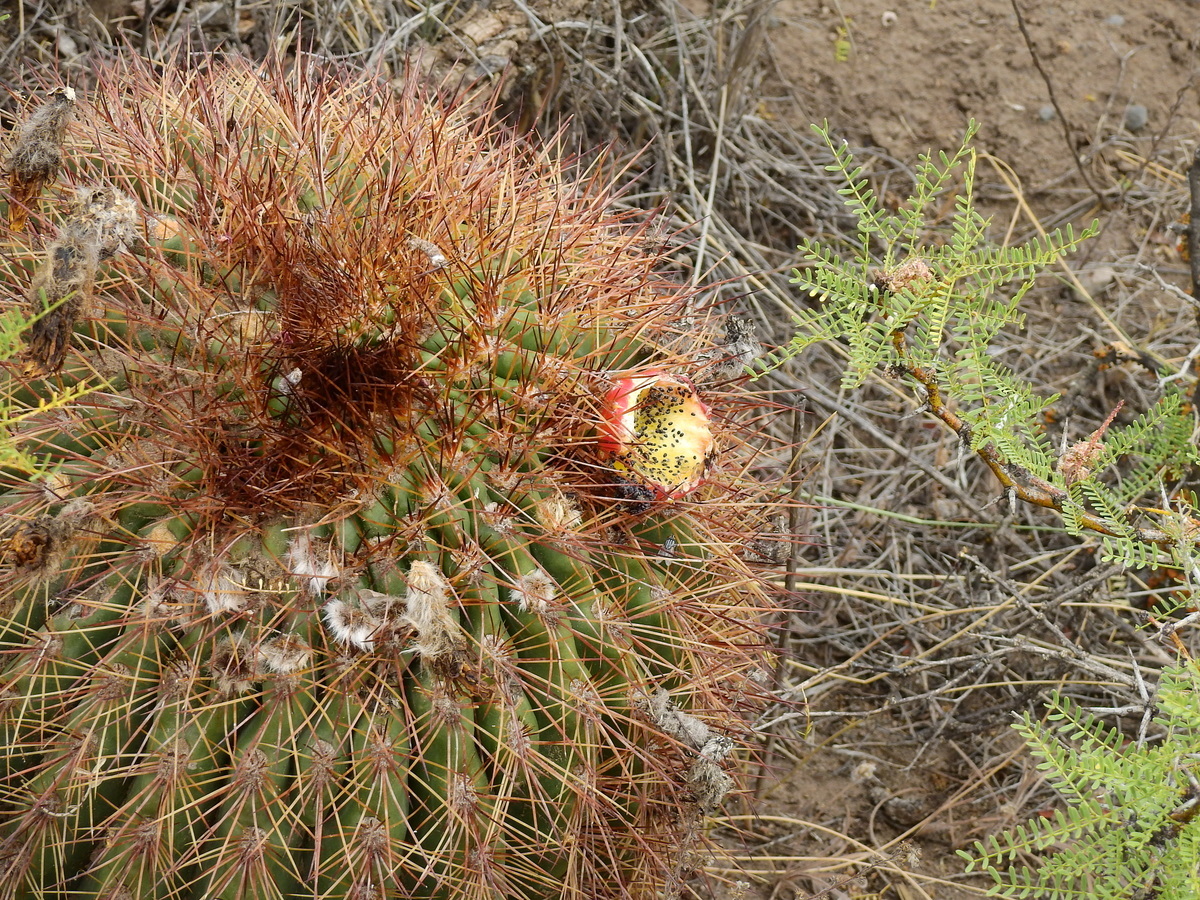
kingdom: Plantae
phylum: Tracheophyta
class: Magnoliopsida
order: Caryophyllales
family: Cactaceae
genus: Soehrensia
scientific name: Soehrensia formosa
